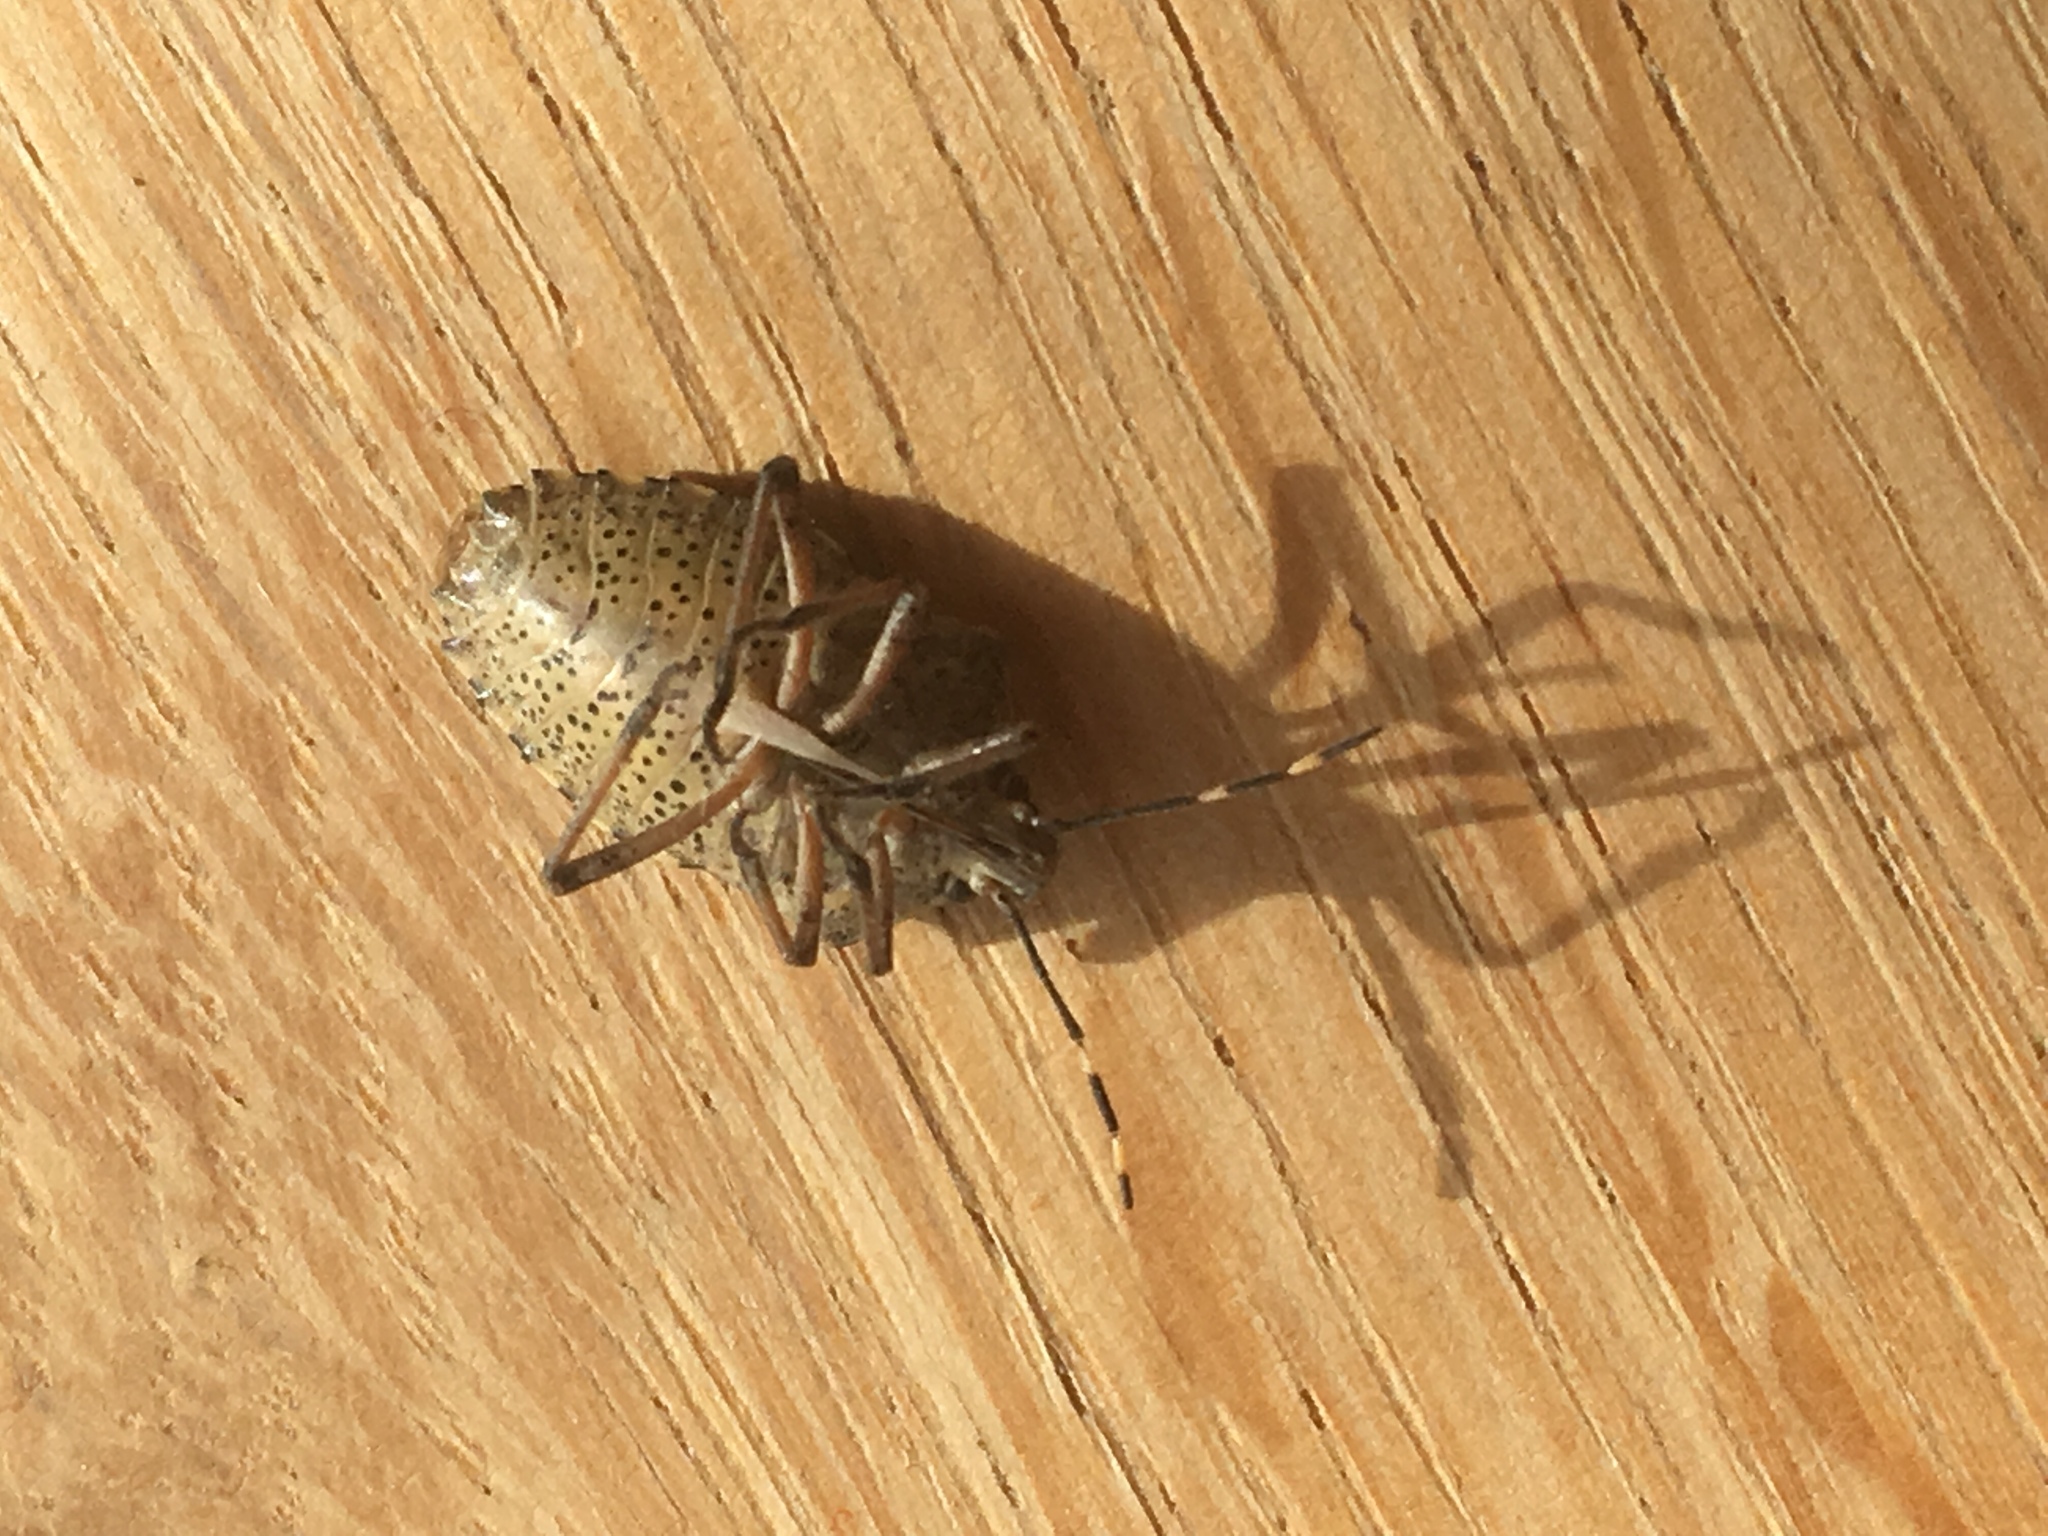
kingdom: Animalia
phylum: Arthropoda
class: Insecta
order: Hemiptera
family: Pentatomidae
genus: Rhaphigaster
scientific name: Rhaphigaster nebulosa
